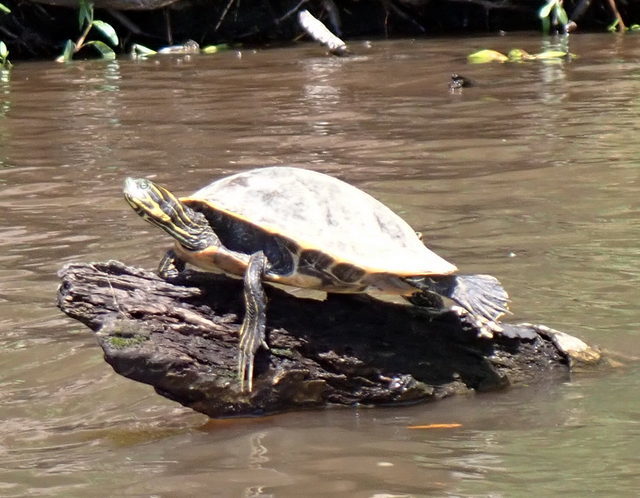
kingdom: Animalia
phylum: Chordata
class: Testudines
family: Emydidae
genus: Pseudemys
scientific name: Pseudemys concinna
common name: Eastern river cooter
